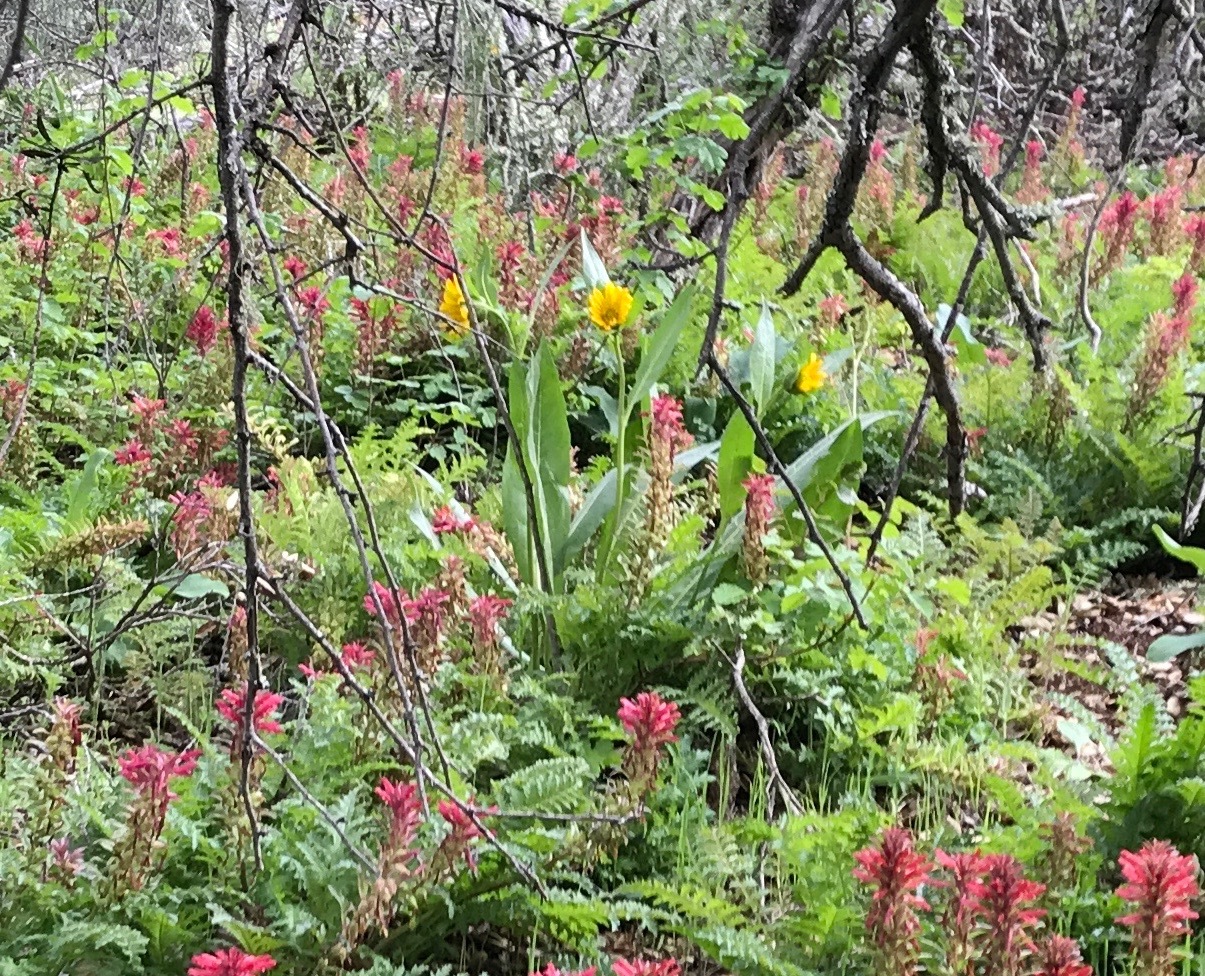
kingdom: Plantae
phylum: Tracheophyta
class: Magnoliopsida
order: Asterales
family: Asteraceae
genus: Wyethia
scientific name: Wyethia angustifolia
